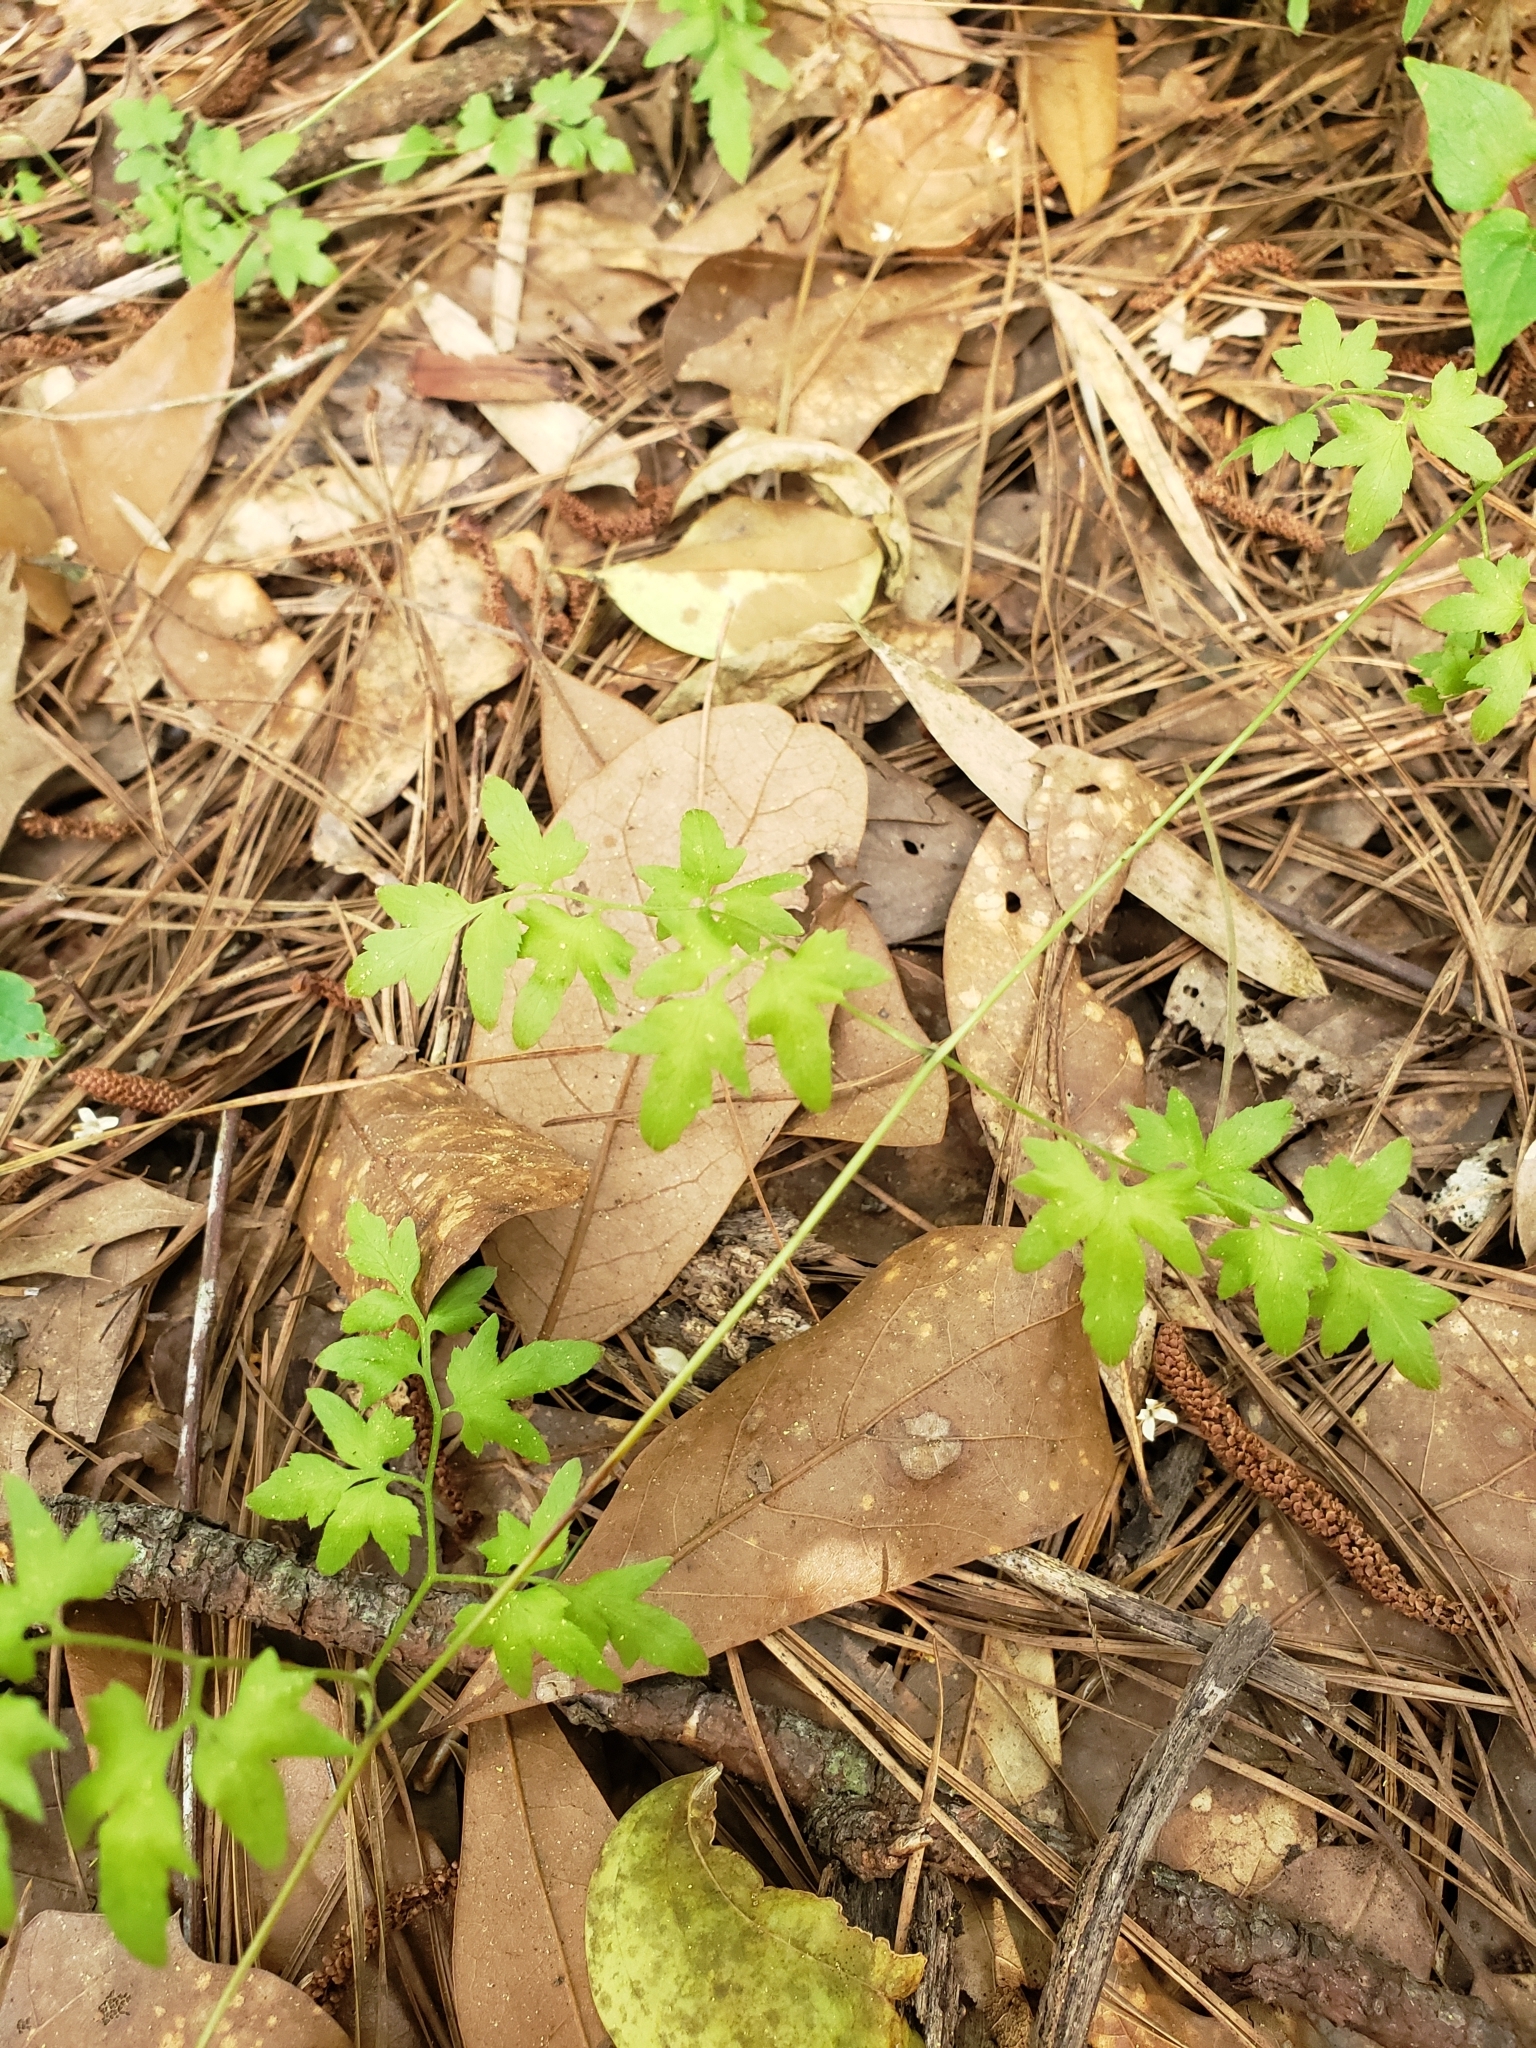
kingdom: Plantae
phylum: Tracheophyta
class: Polypodiopsida
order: Schizaeales
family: Lygodiaceae
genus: Lygodium
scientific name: Lygodium japonicum
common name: Japanese climbing fern
